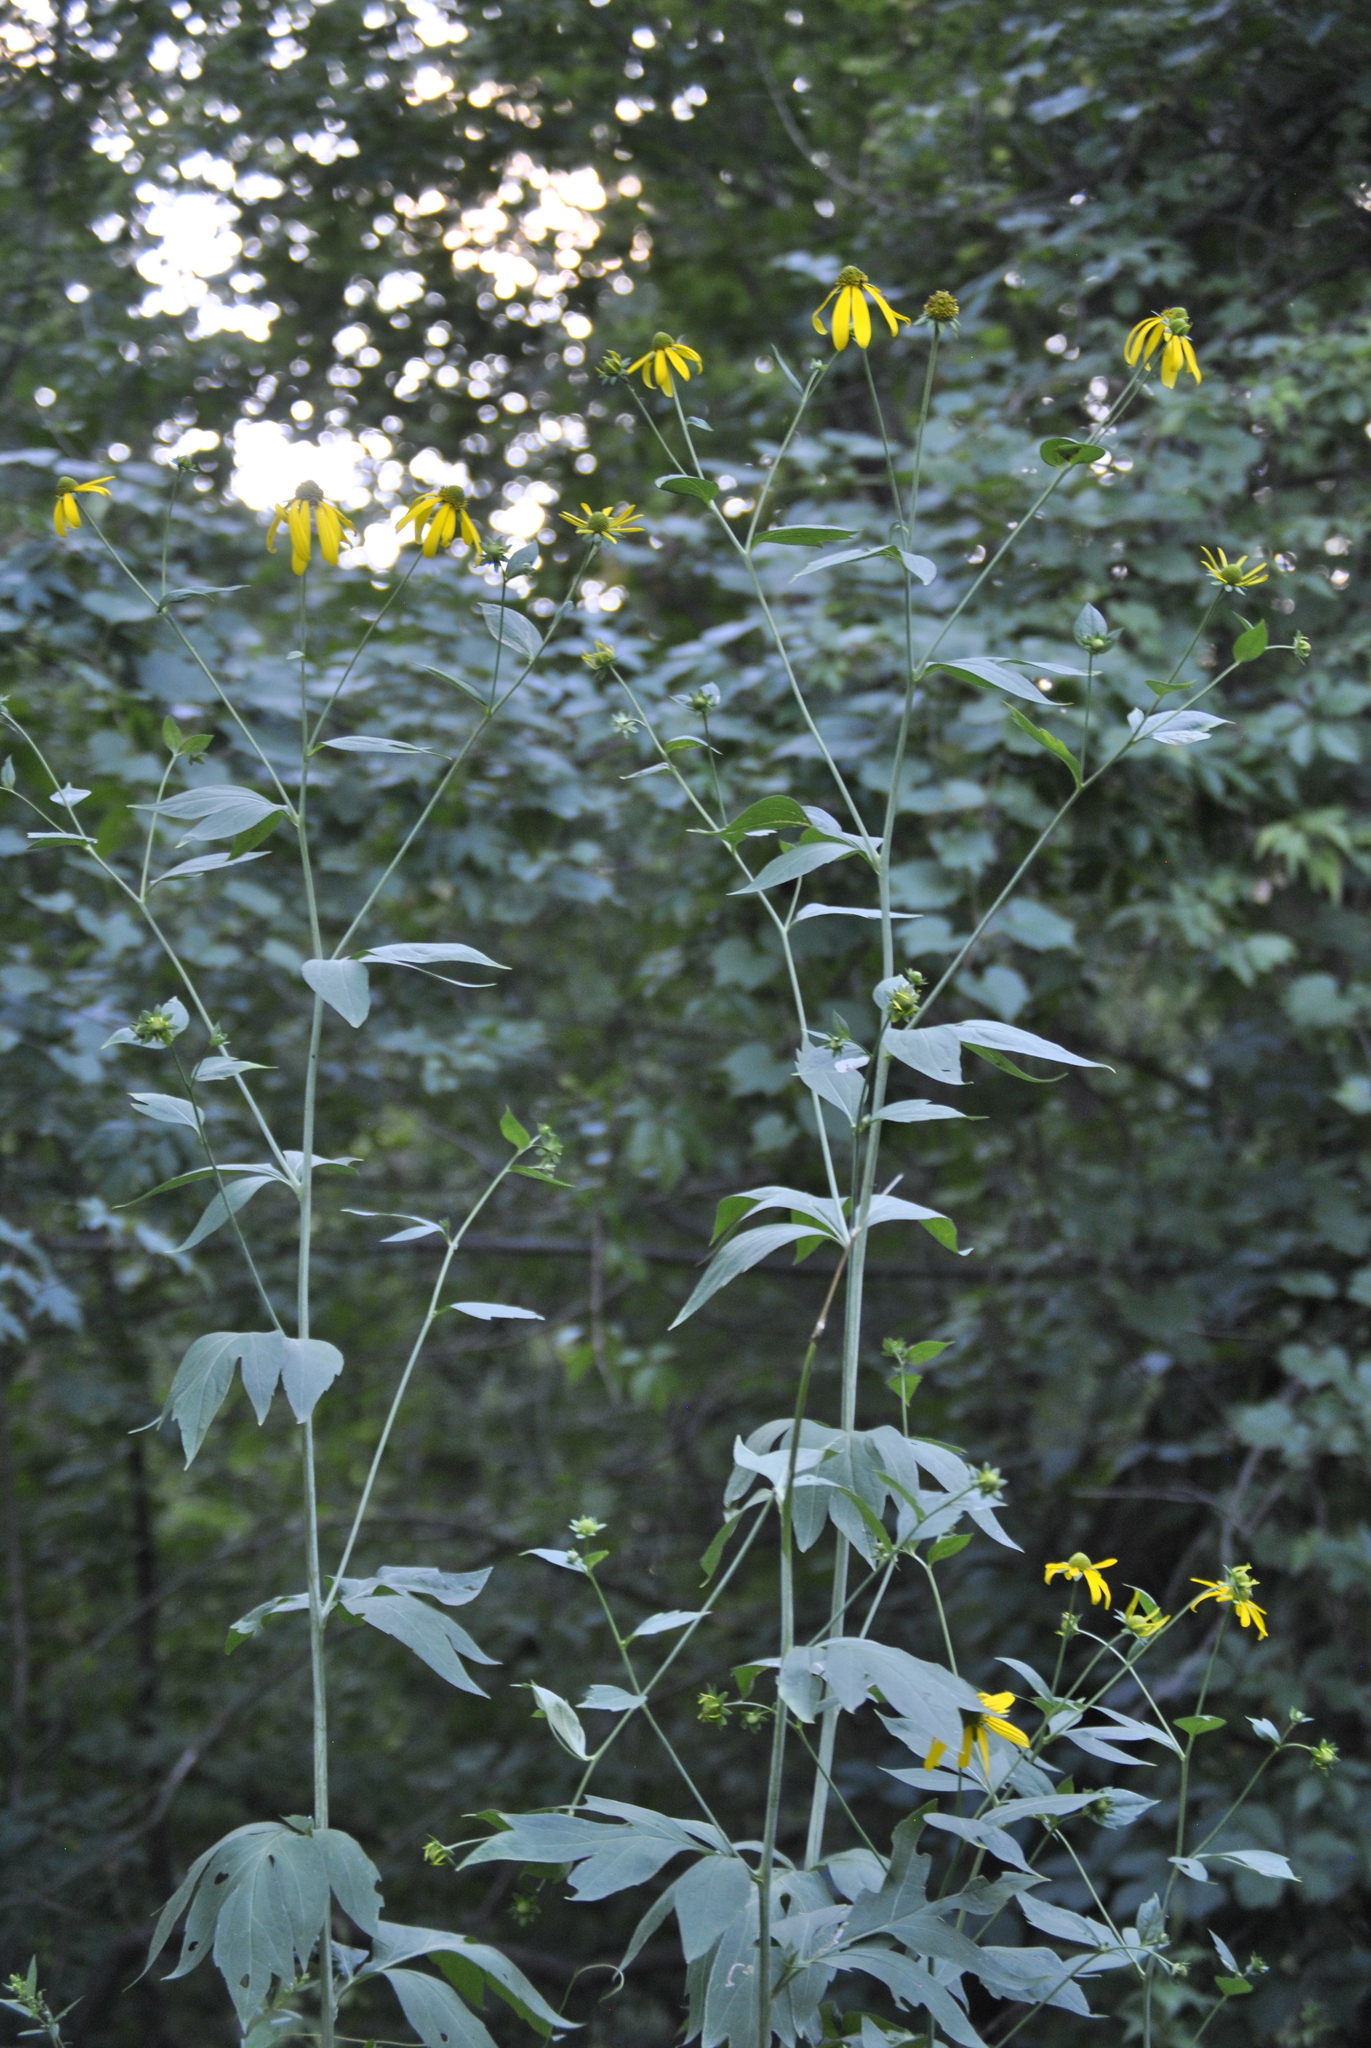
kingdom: Plantae
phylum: Tracheophyta
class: Magnoliopsida
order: Asterales
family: Asteraceae
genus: Rudbeckia
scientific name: Rudbeckia laciniata
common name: Coneflower
